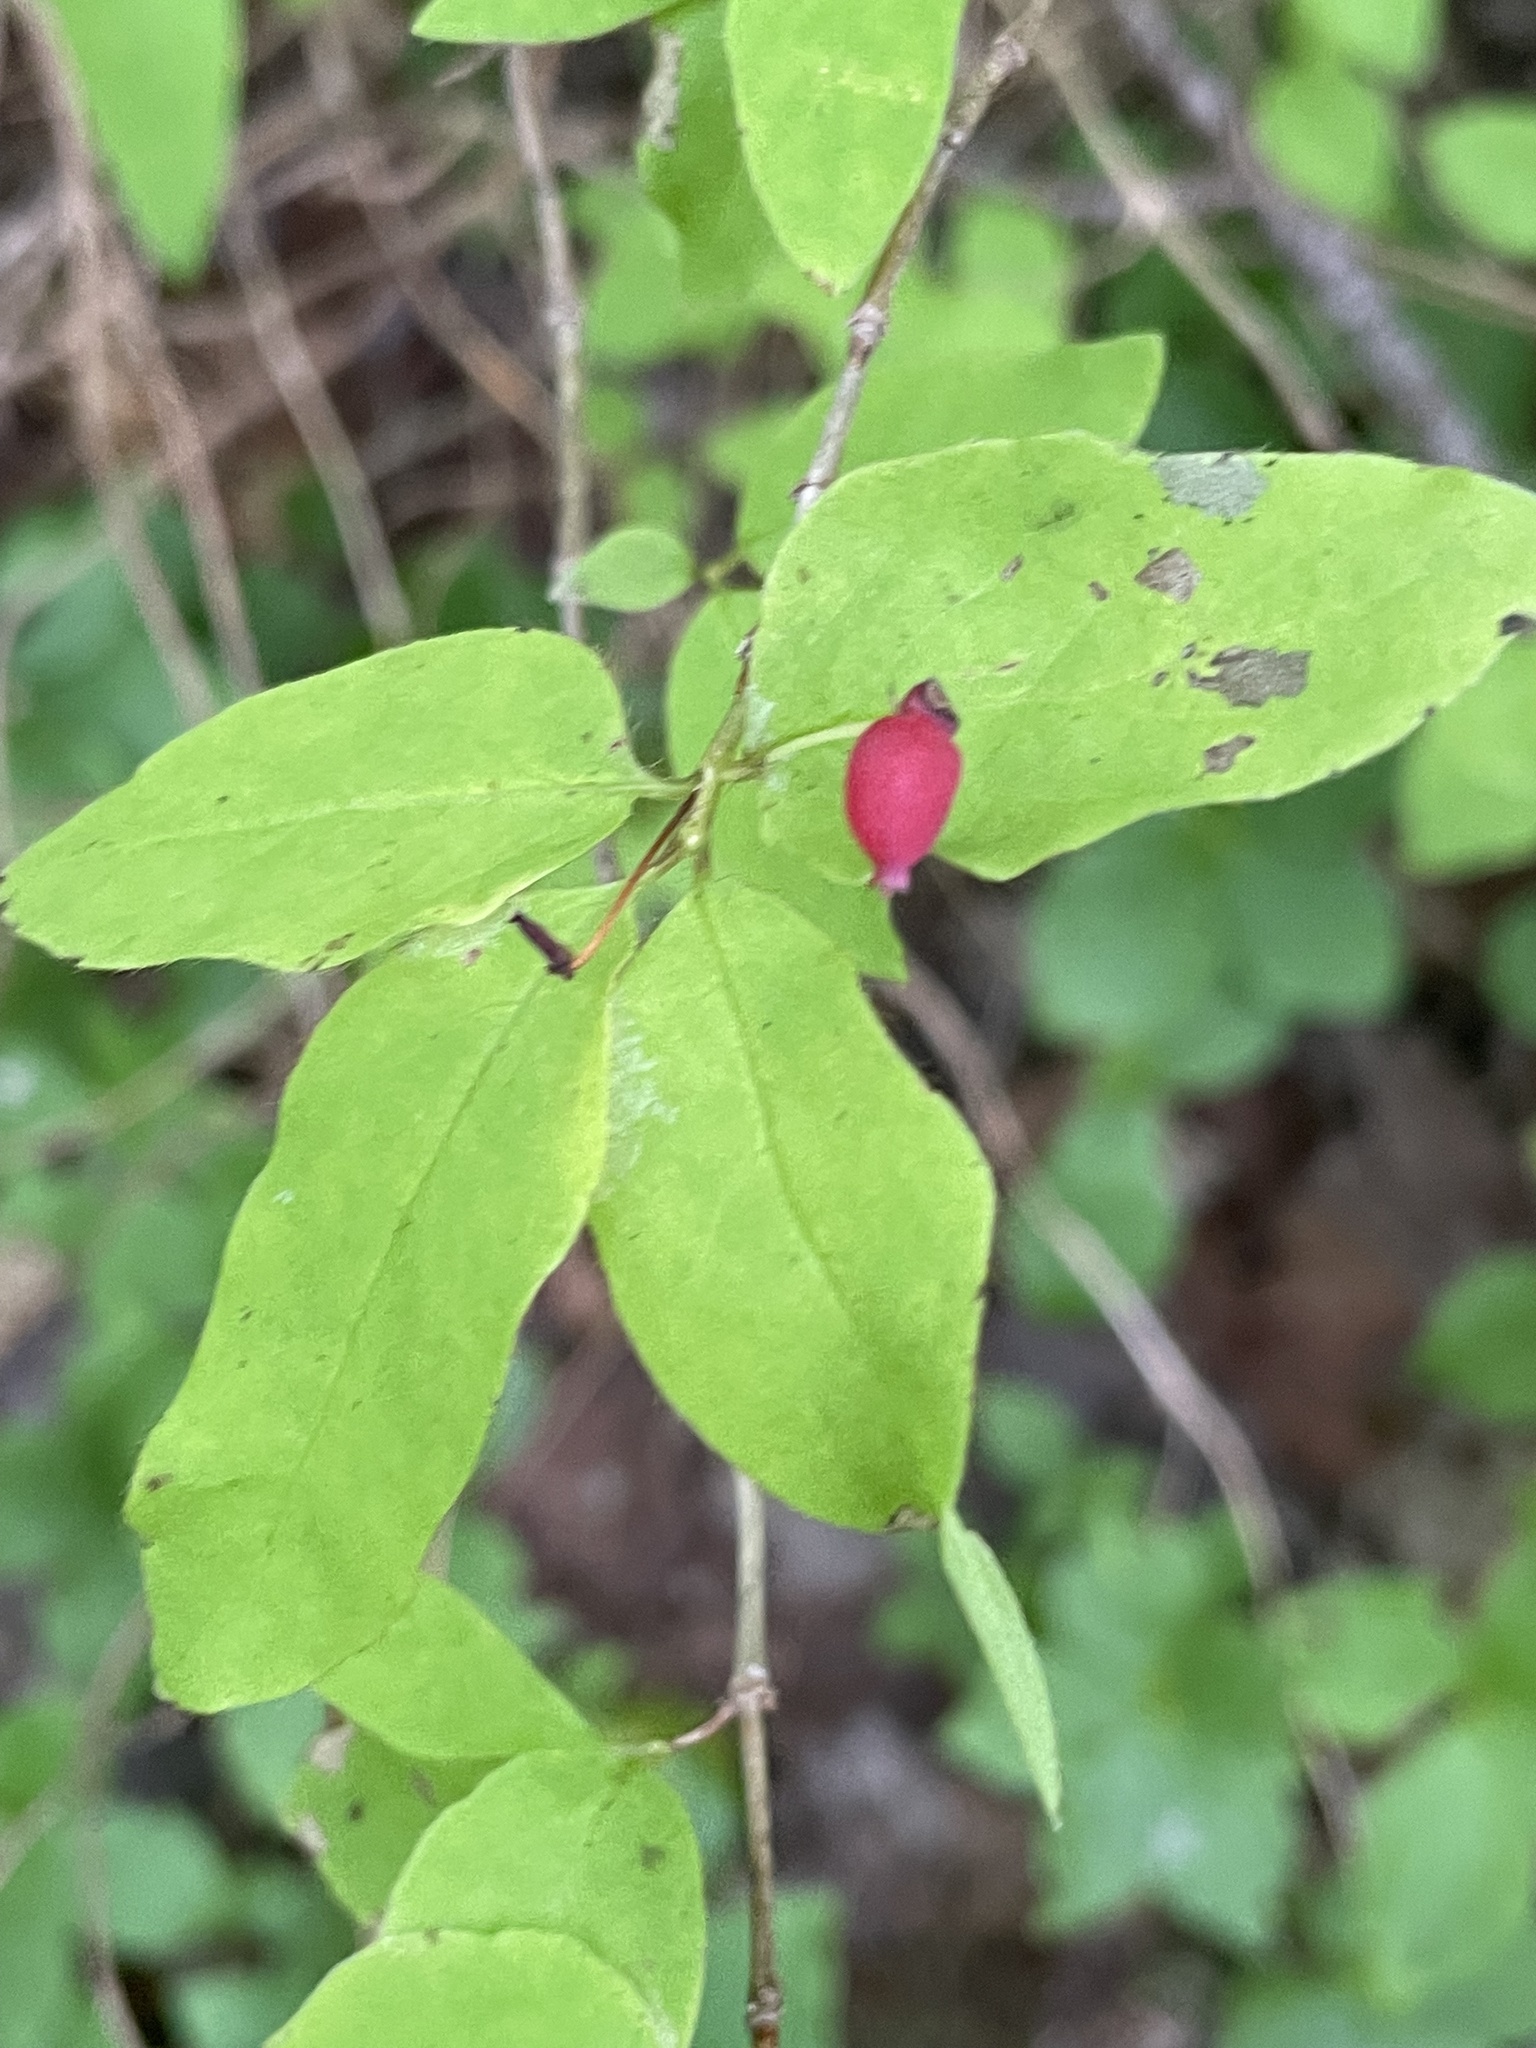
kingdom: Plantae
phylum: Tracheophyta
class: Magnoliopsida
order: Dipsacales
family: Caprifoliaceae
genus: Lonicera
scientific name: Lonicera canadensis
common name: American fly-honeysuckle
